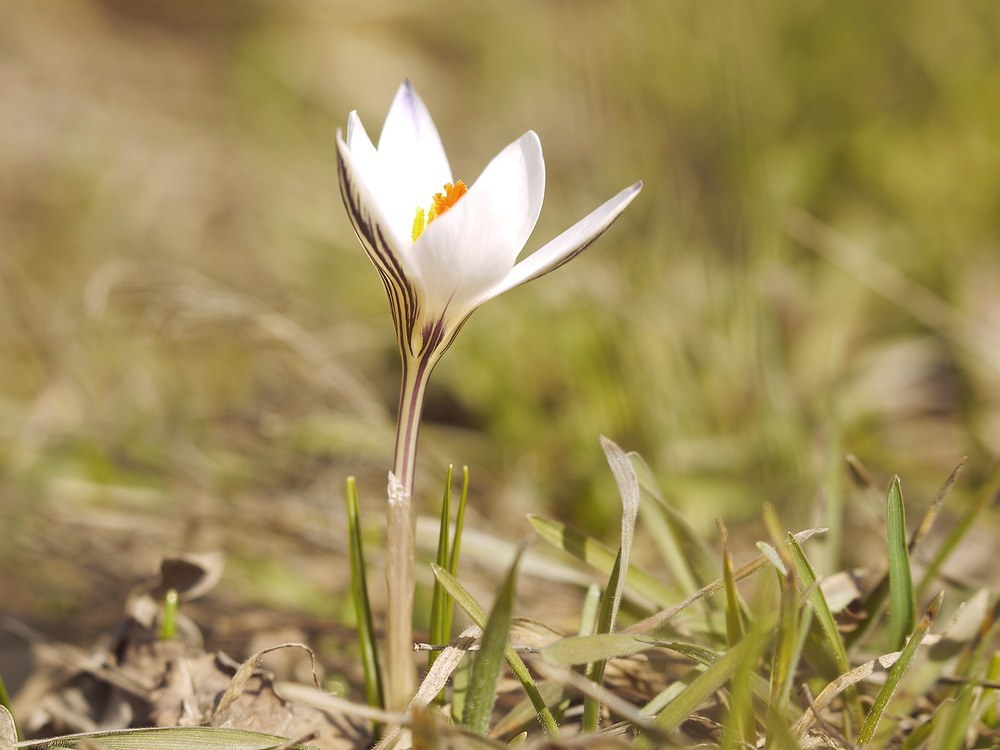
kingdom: Plantae
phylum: Tracheophyta
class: Liliopsida
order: Asparagales
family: Iridaceae
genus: Crocus
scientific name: Crocus reticulatus
